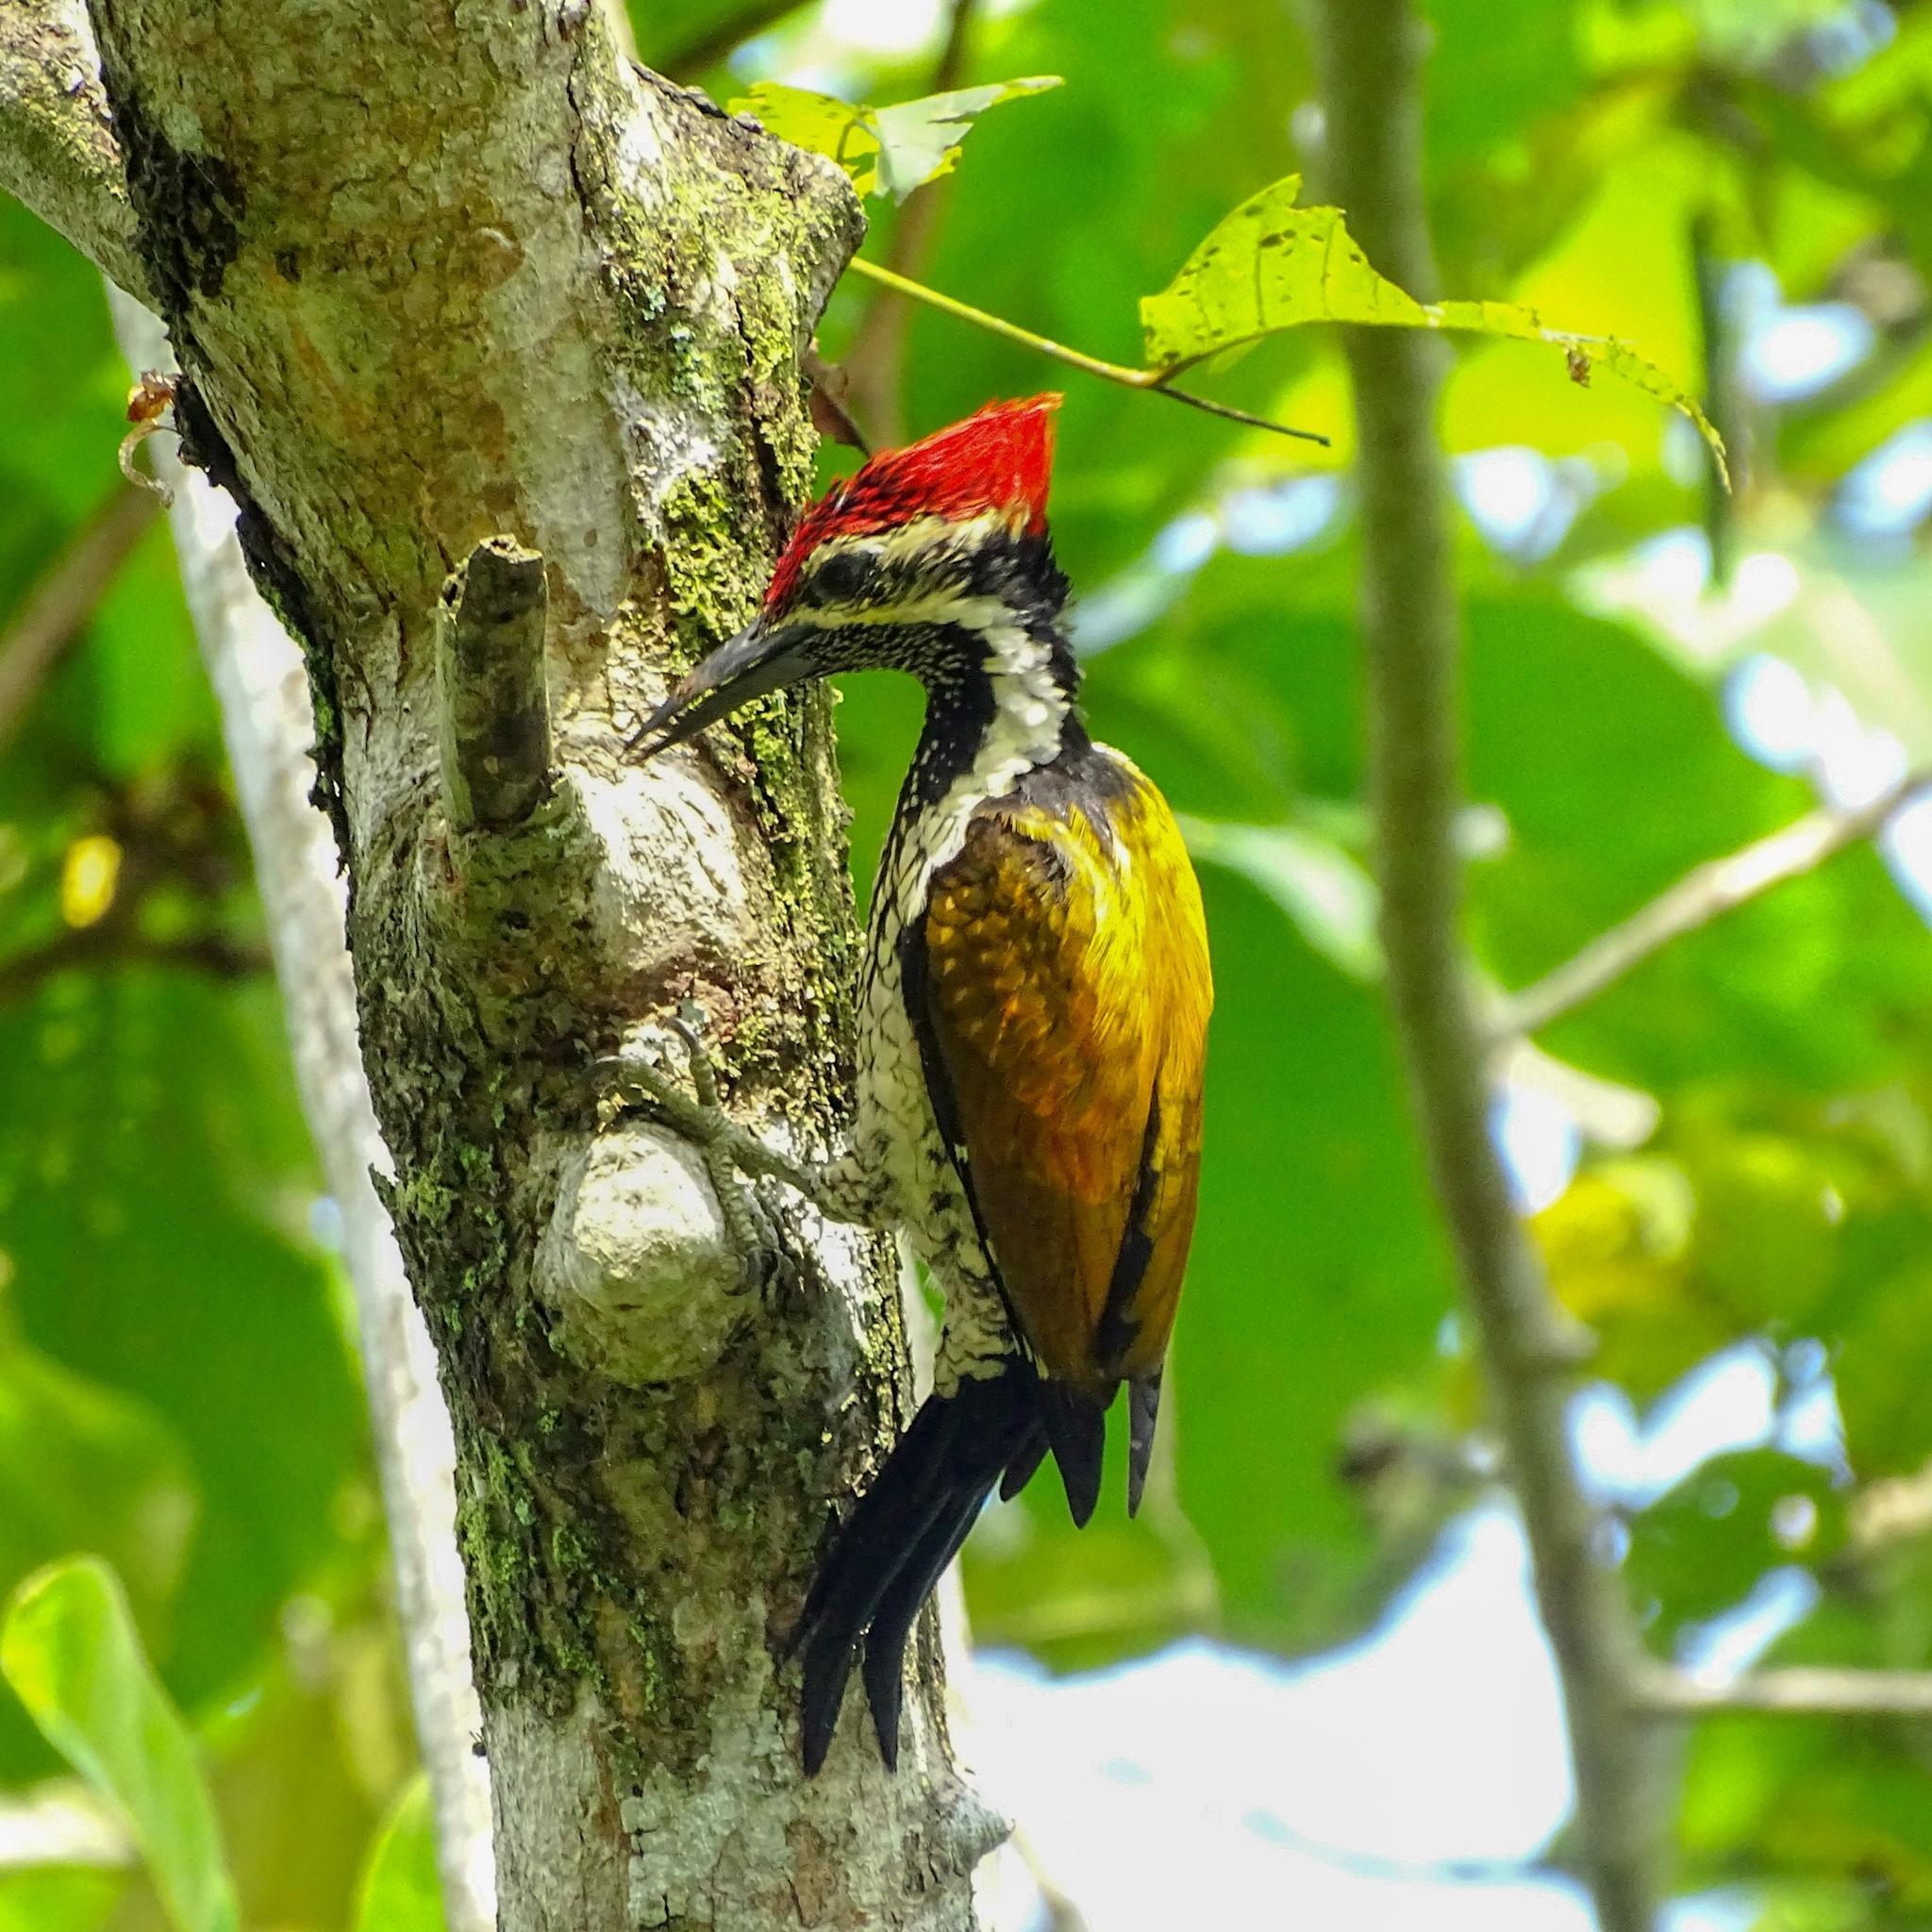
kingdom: Animalia
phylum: Chordata
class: Aves
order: Piciformes
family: Picidae
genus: Dinopium
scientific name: Dinopium benghalense
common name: Black-rumped flameback
